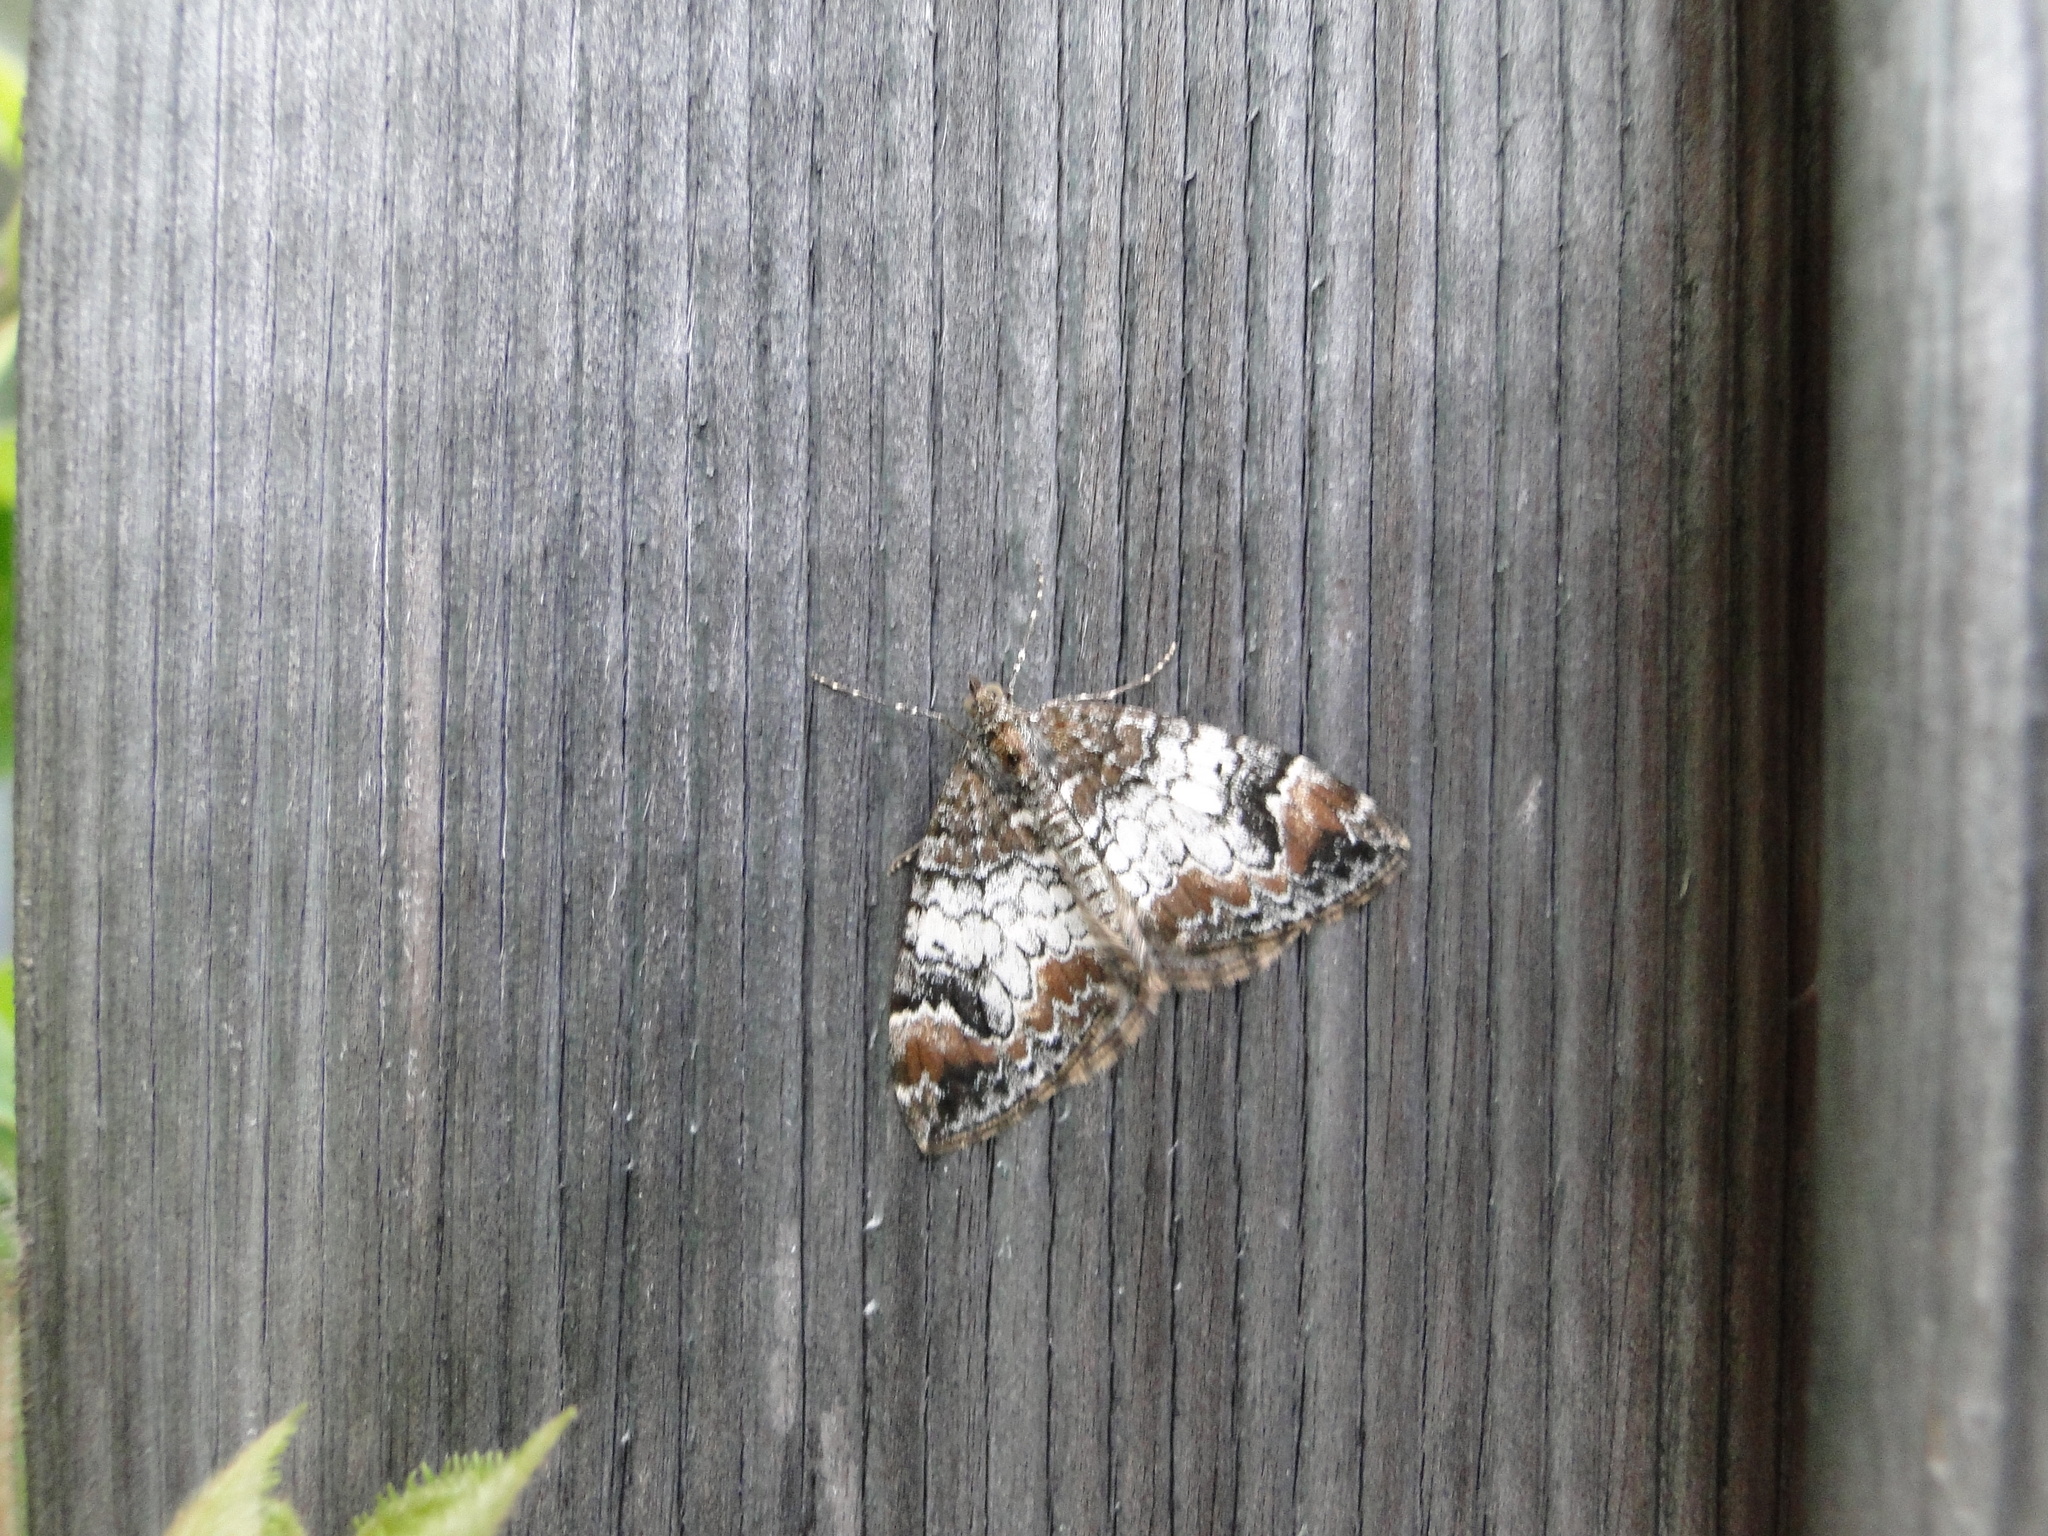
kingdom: Animalia
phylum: Arthropoda
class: Insecta
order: Lepidoptera
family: Geometridae
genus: Dysstroma
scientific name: Dysstroma truncata
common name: Common marbled carpet
